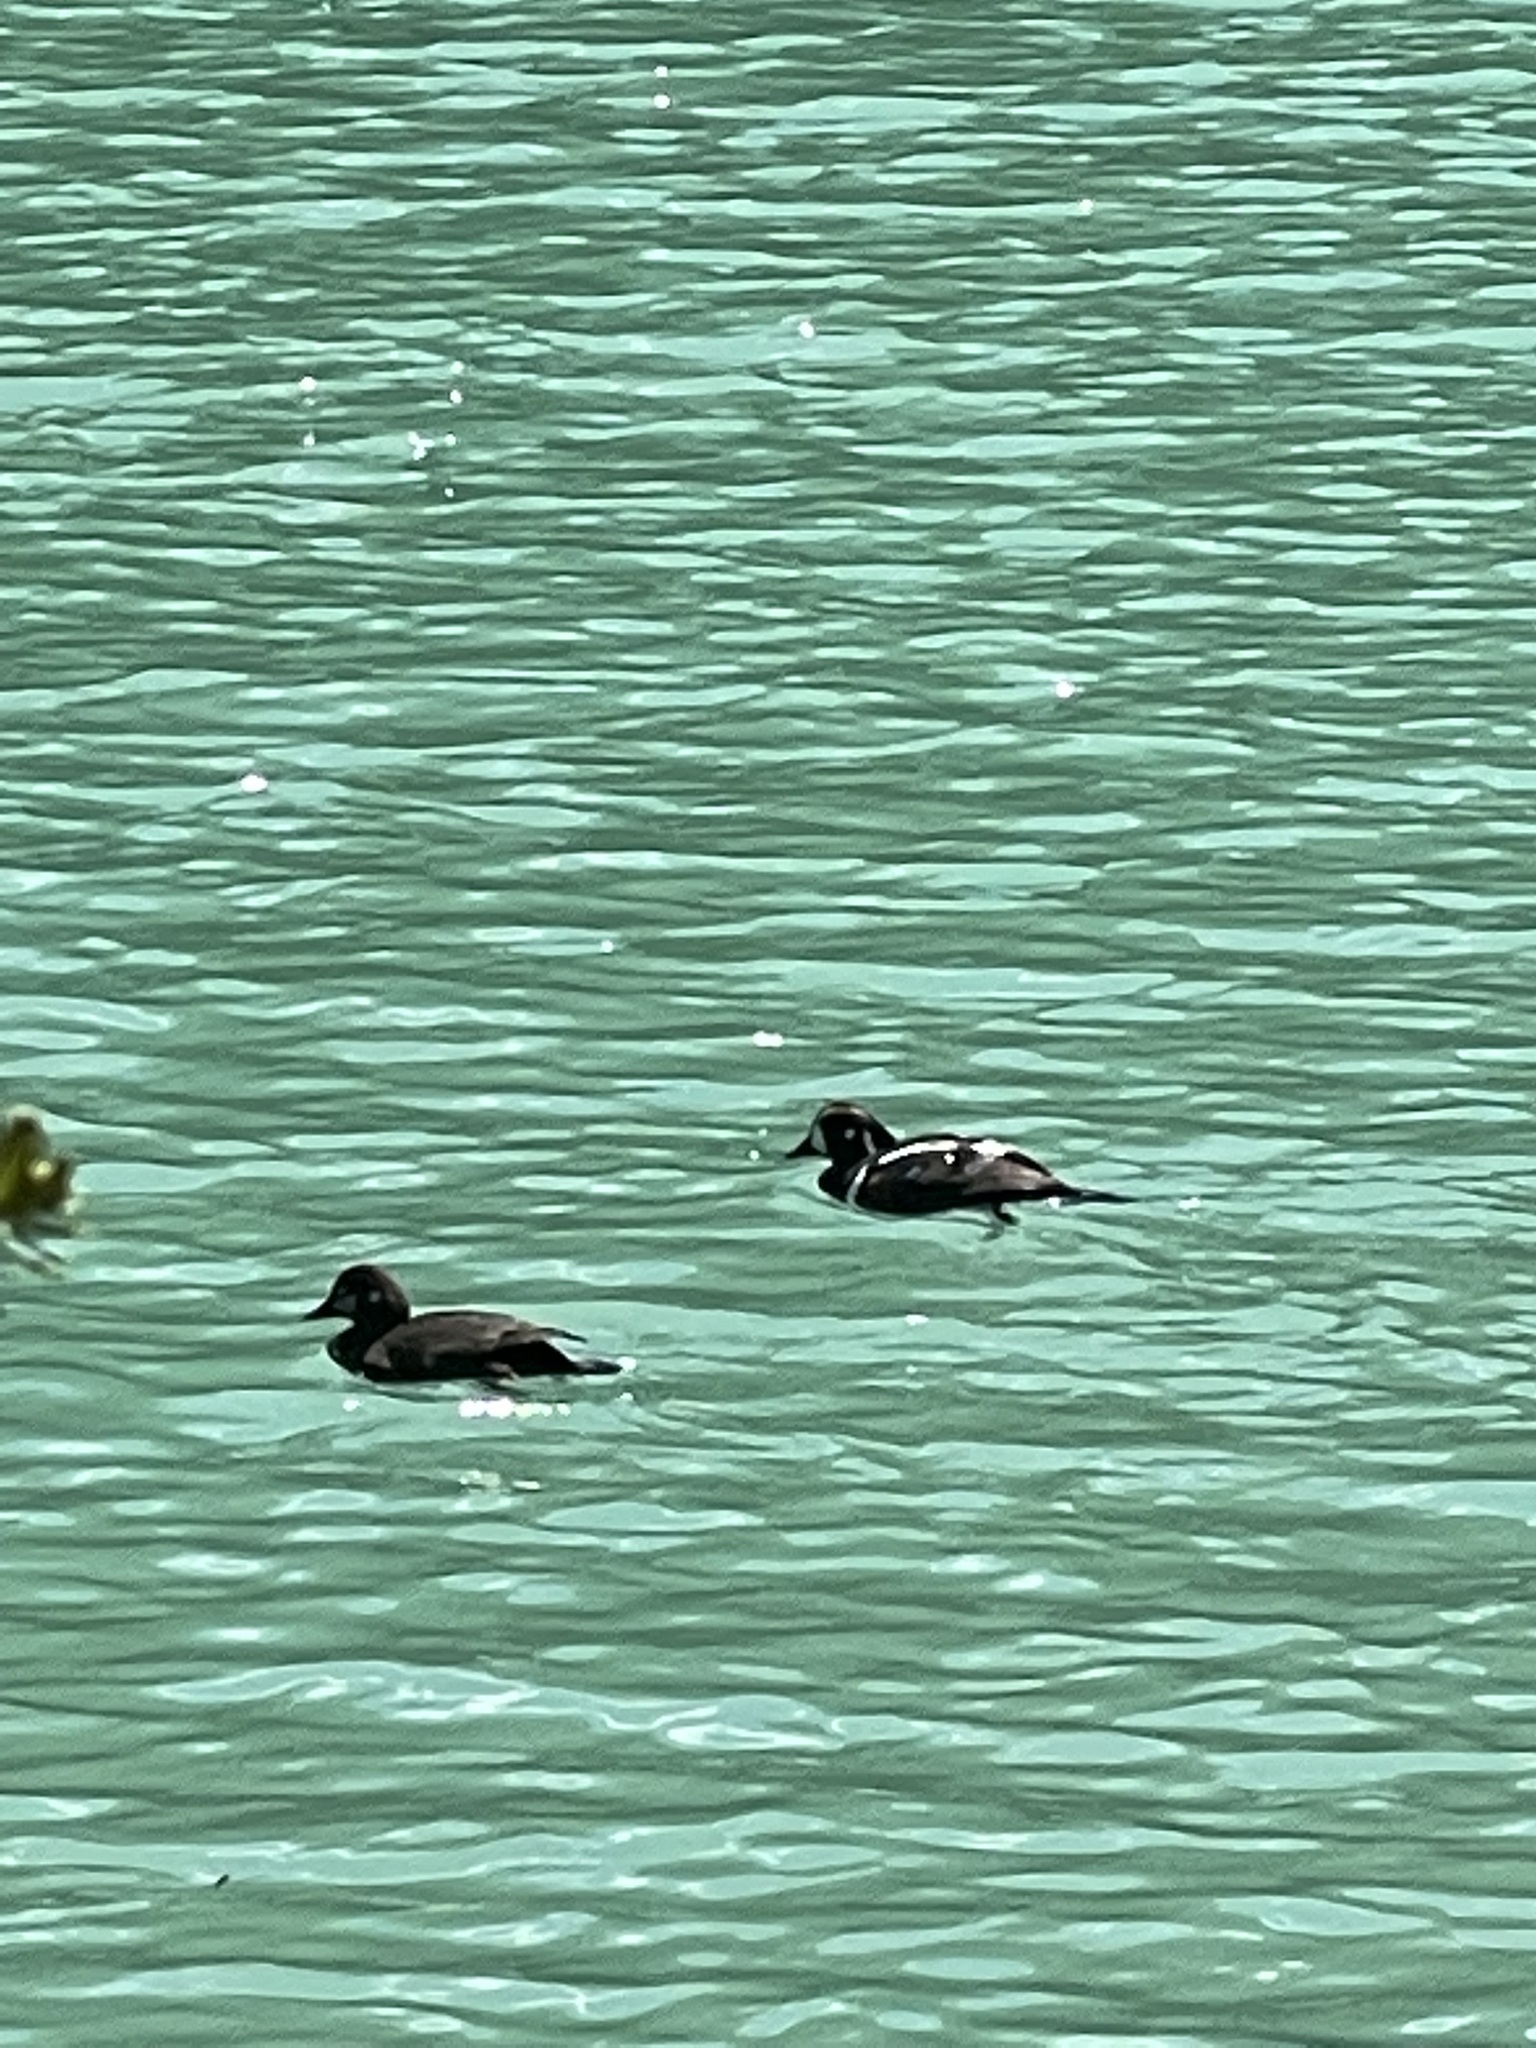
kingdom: Animalia
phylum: Chordata
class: Aves
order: Anseriformes
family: Anatidae
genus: Histrionicus
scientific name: Histrionicus histrionicus
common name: Harlequin duck
